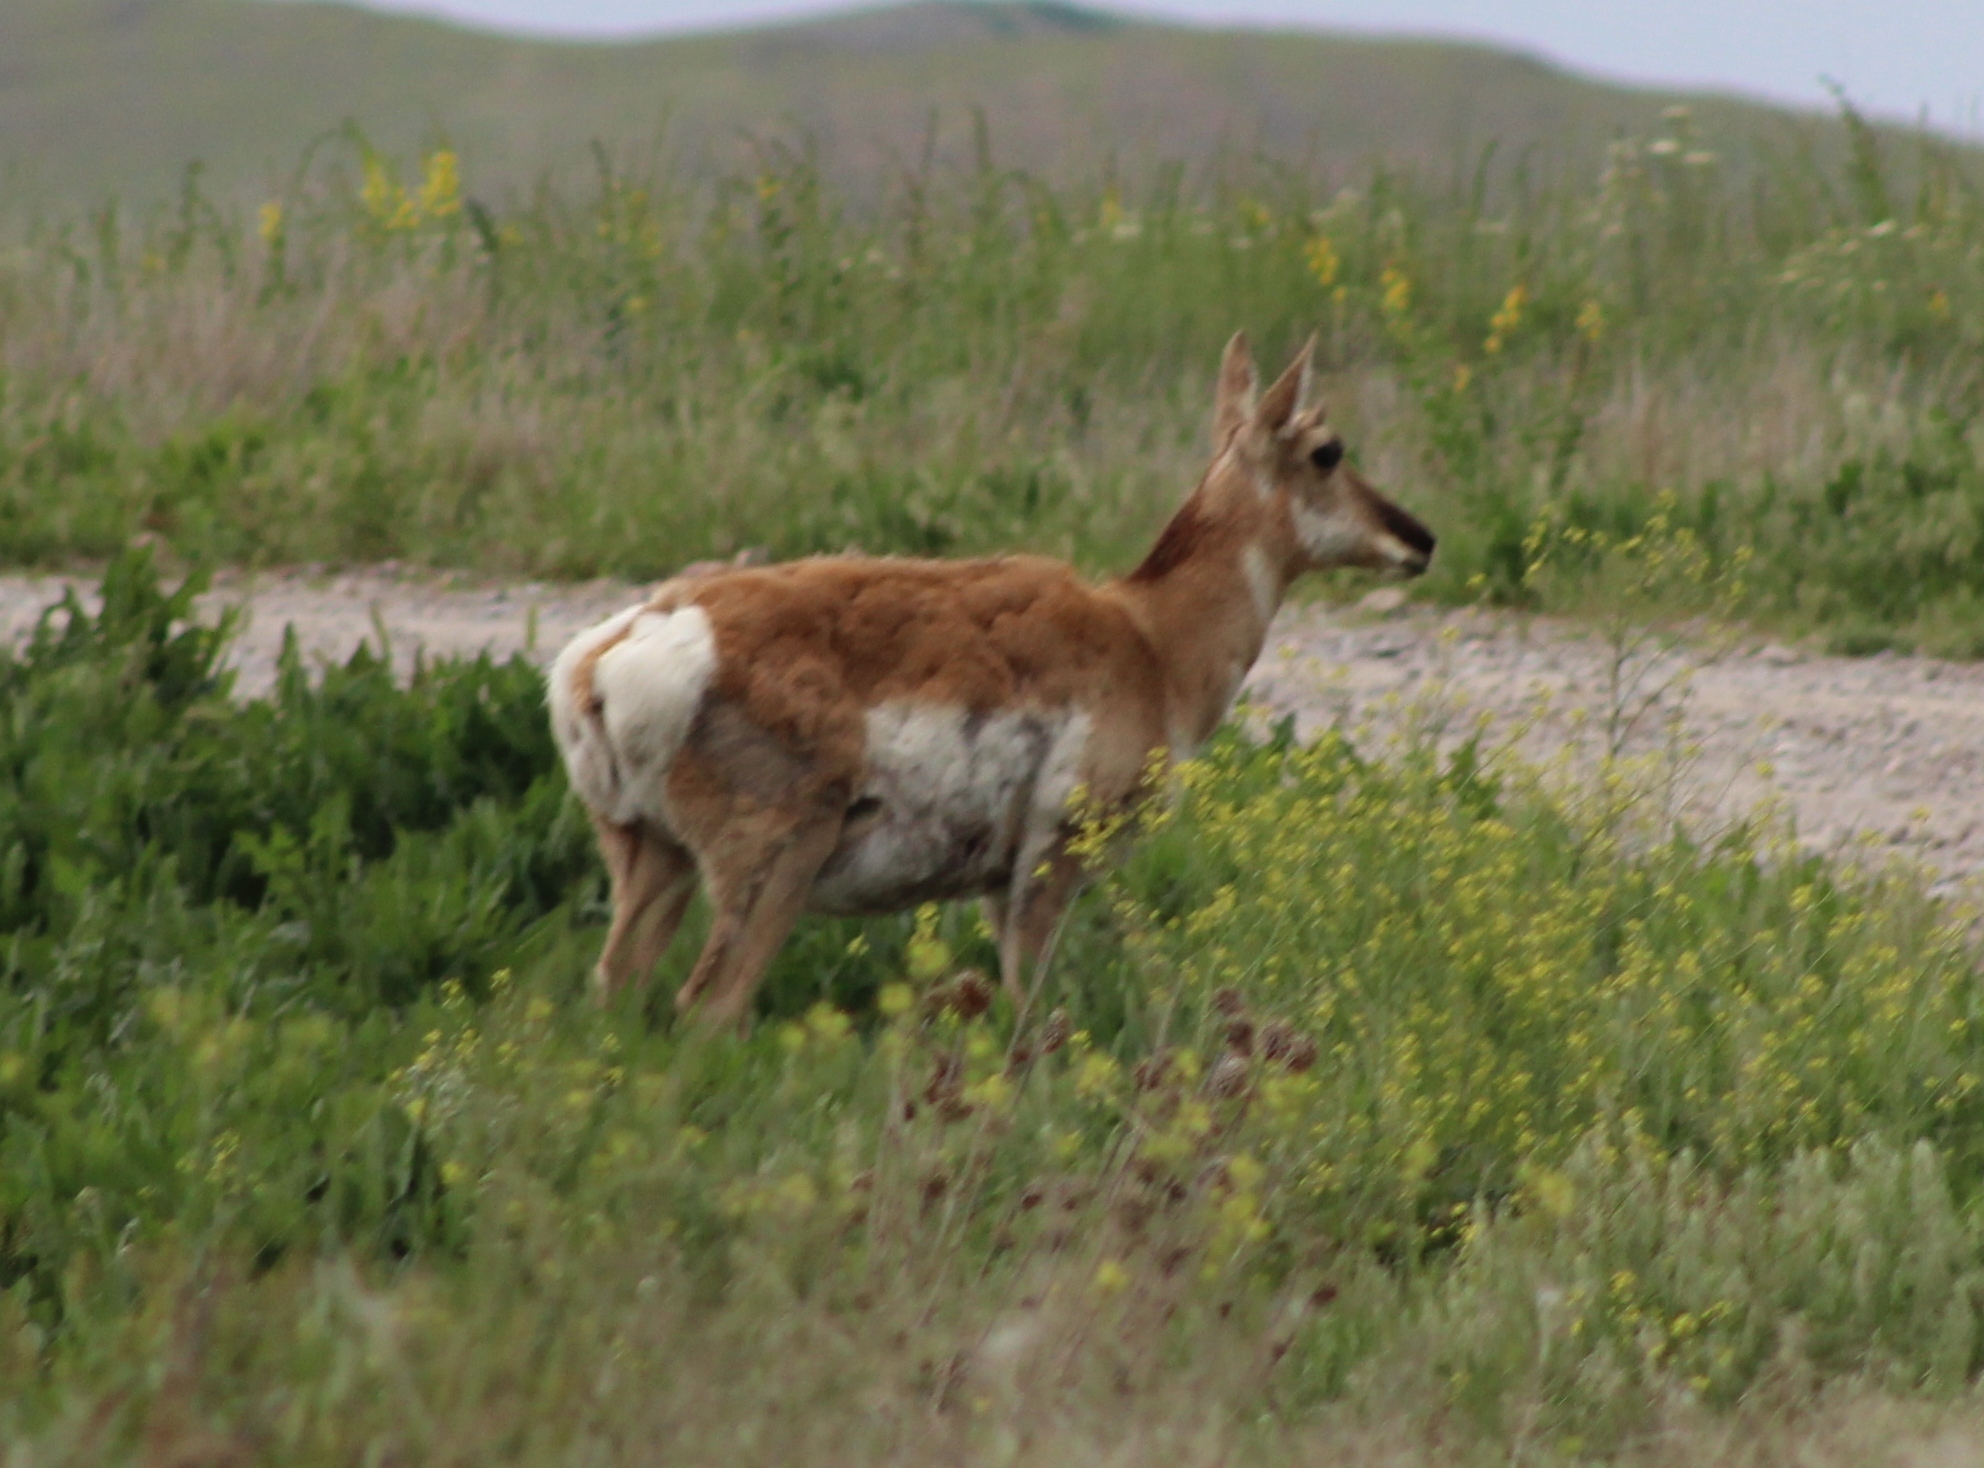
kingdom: Animalia
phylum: Chordata
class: Mammalia
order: Artiodactyla
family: Antilocapridae
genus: Antilocapra
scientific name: Antilocapra americana
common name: Pronghorn
